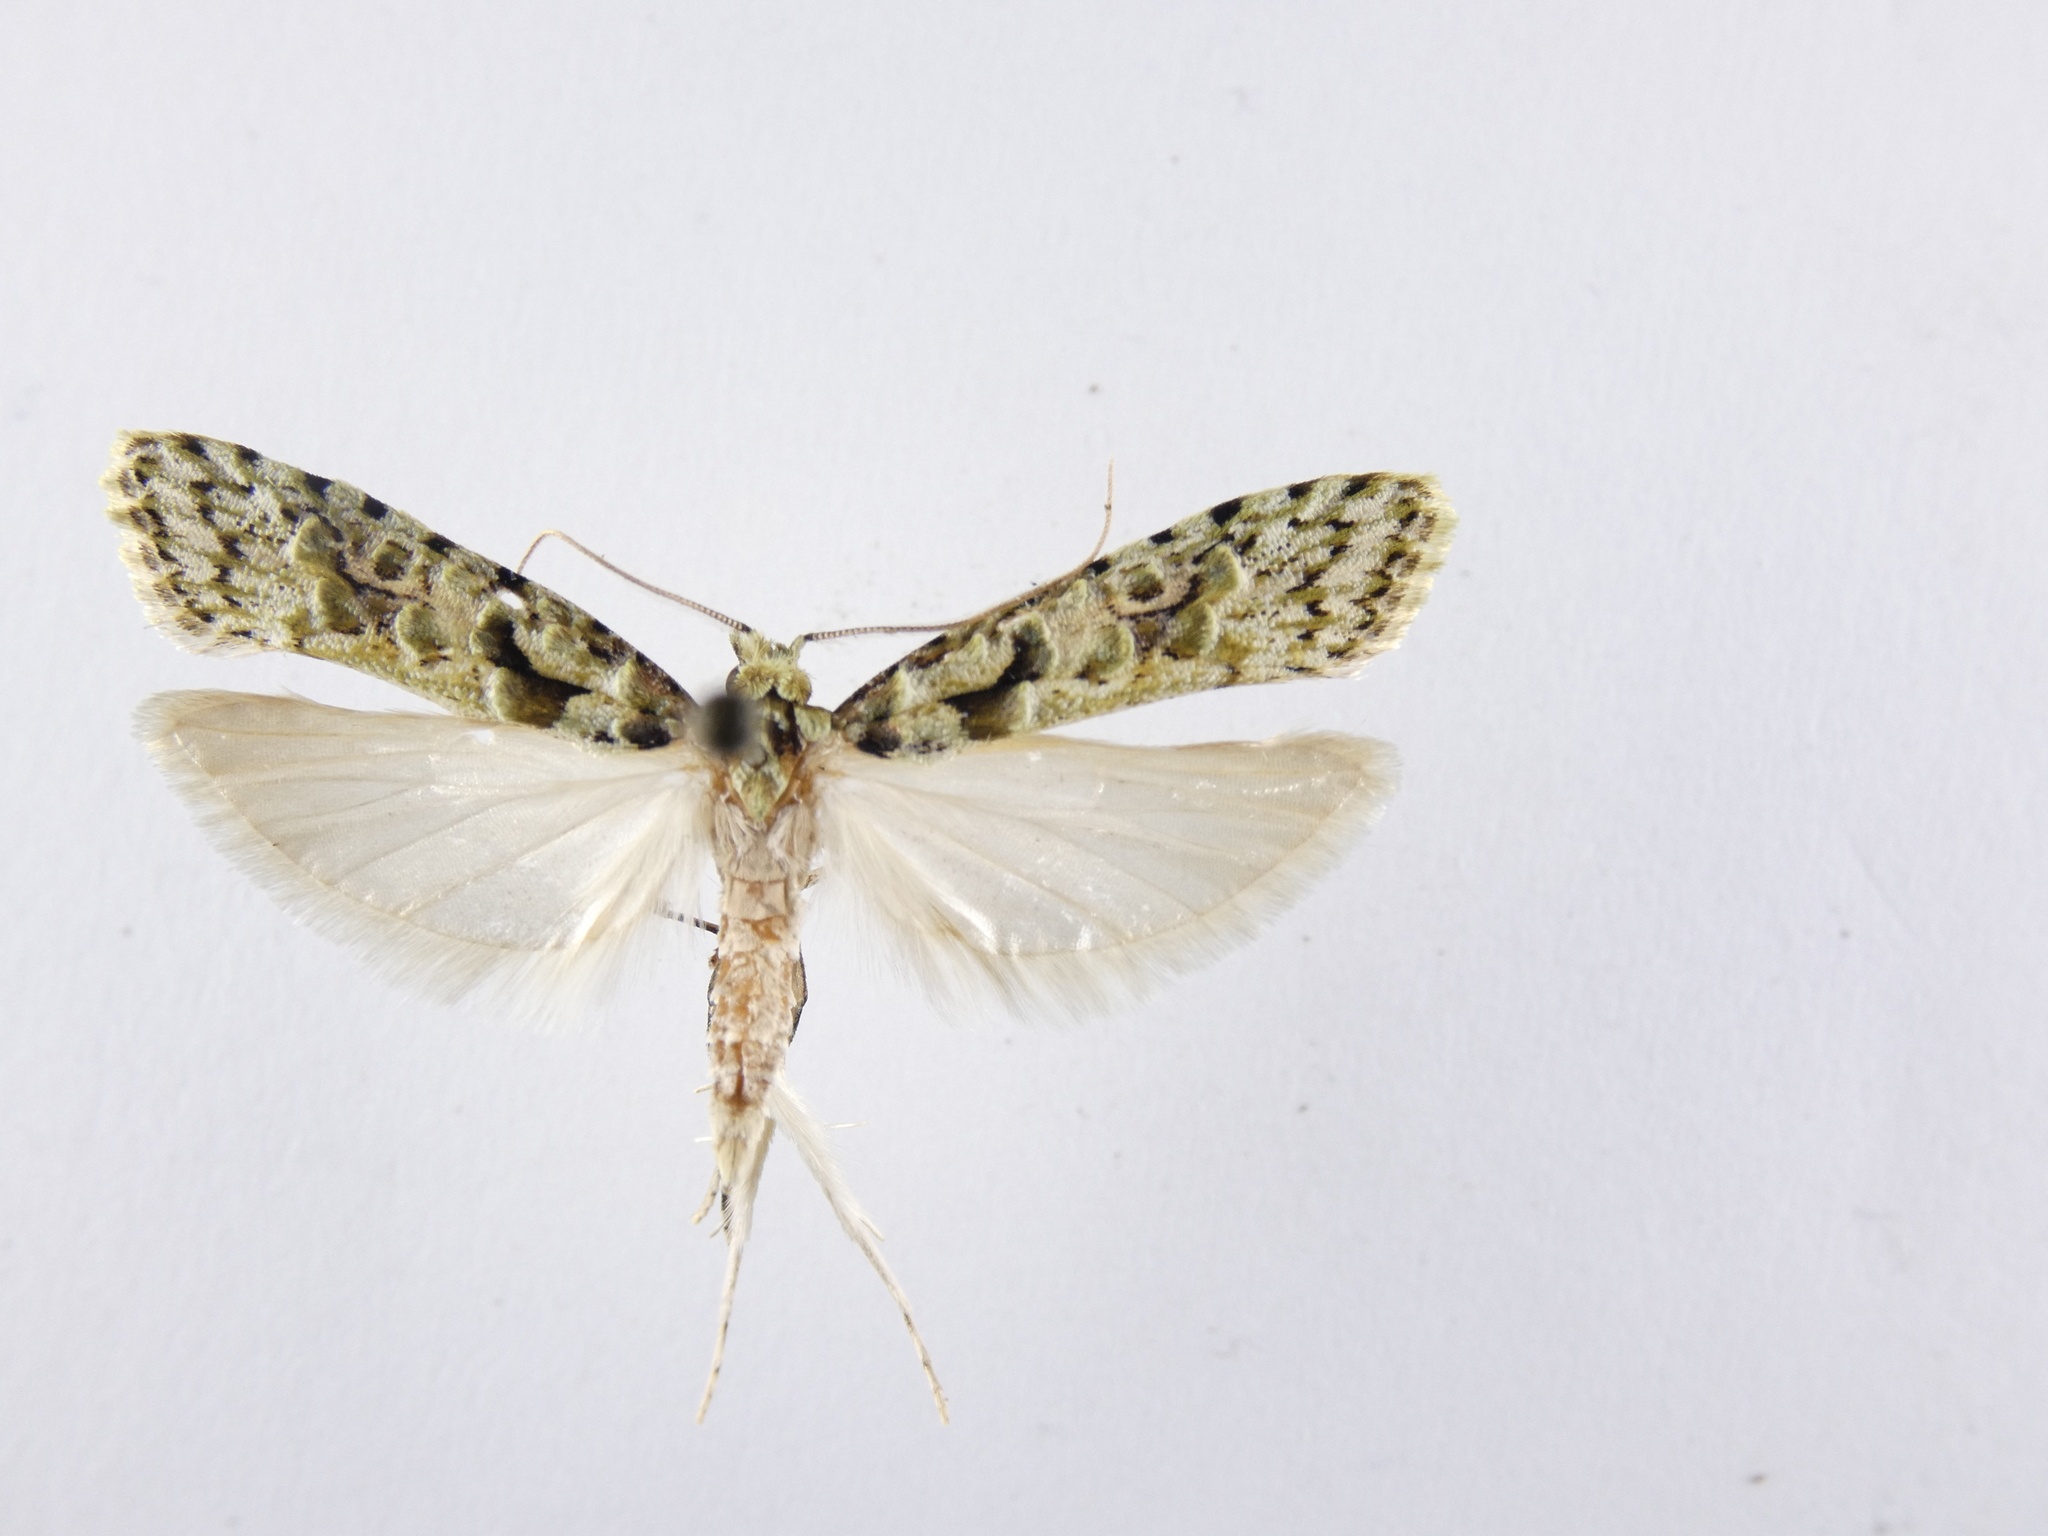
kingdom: Animalia
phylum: Arthropoda
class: Insecta
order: Lepidoptera
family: Carposinidae
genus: Carposina
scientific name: Carposina Heterocrossa eriphylla
